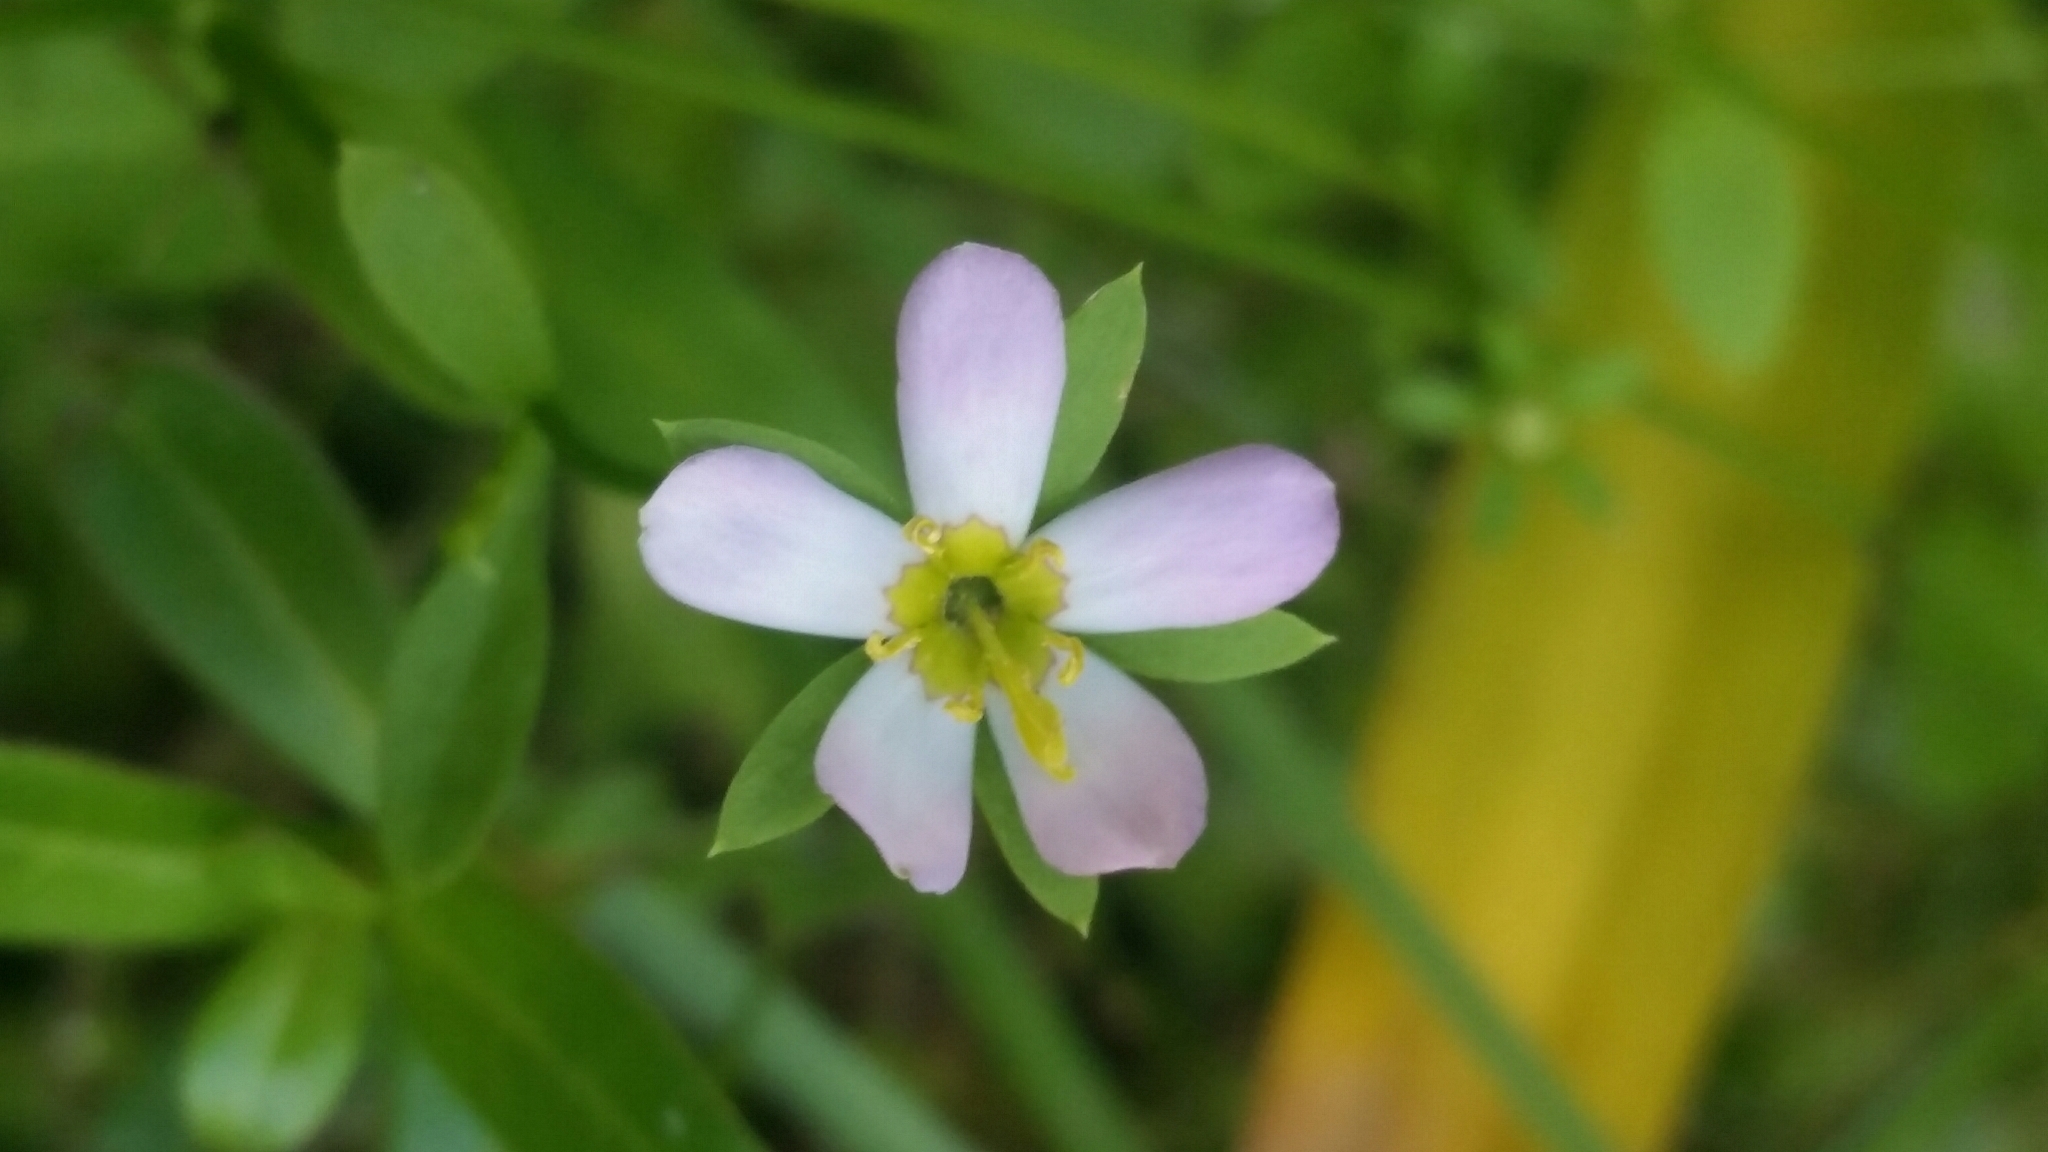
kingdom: Plantae
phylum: Tracheophyta
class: Magnoliopsida
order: Gentianales
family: Gentianaceae
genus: Sabatia
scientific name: Sabatia calycina
